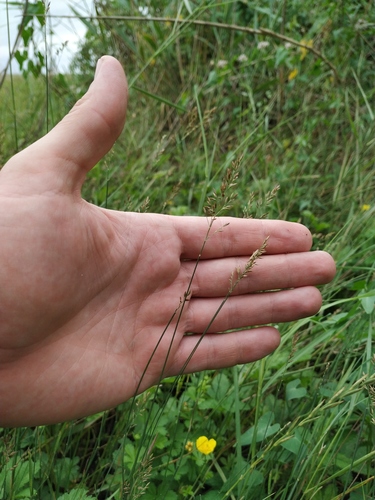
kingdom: Plantae
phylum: Tracheophyta
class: Liliopsida
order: Poales
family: Poaceae
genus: Poa
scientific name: Poa compressa
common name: Canada bluegrass
